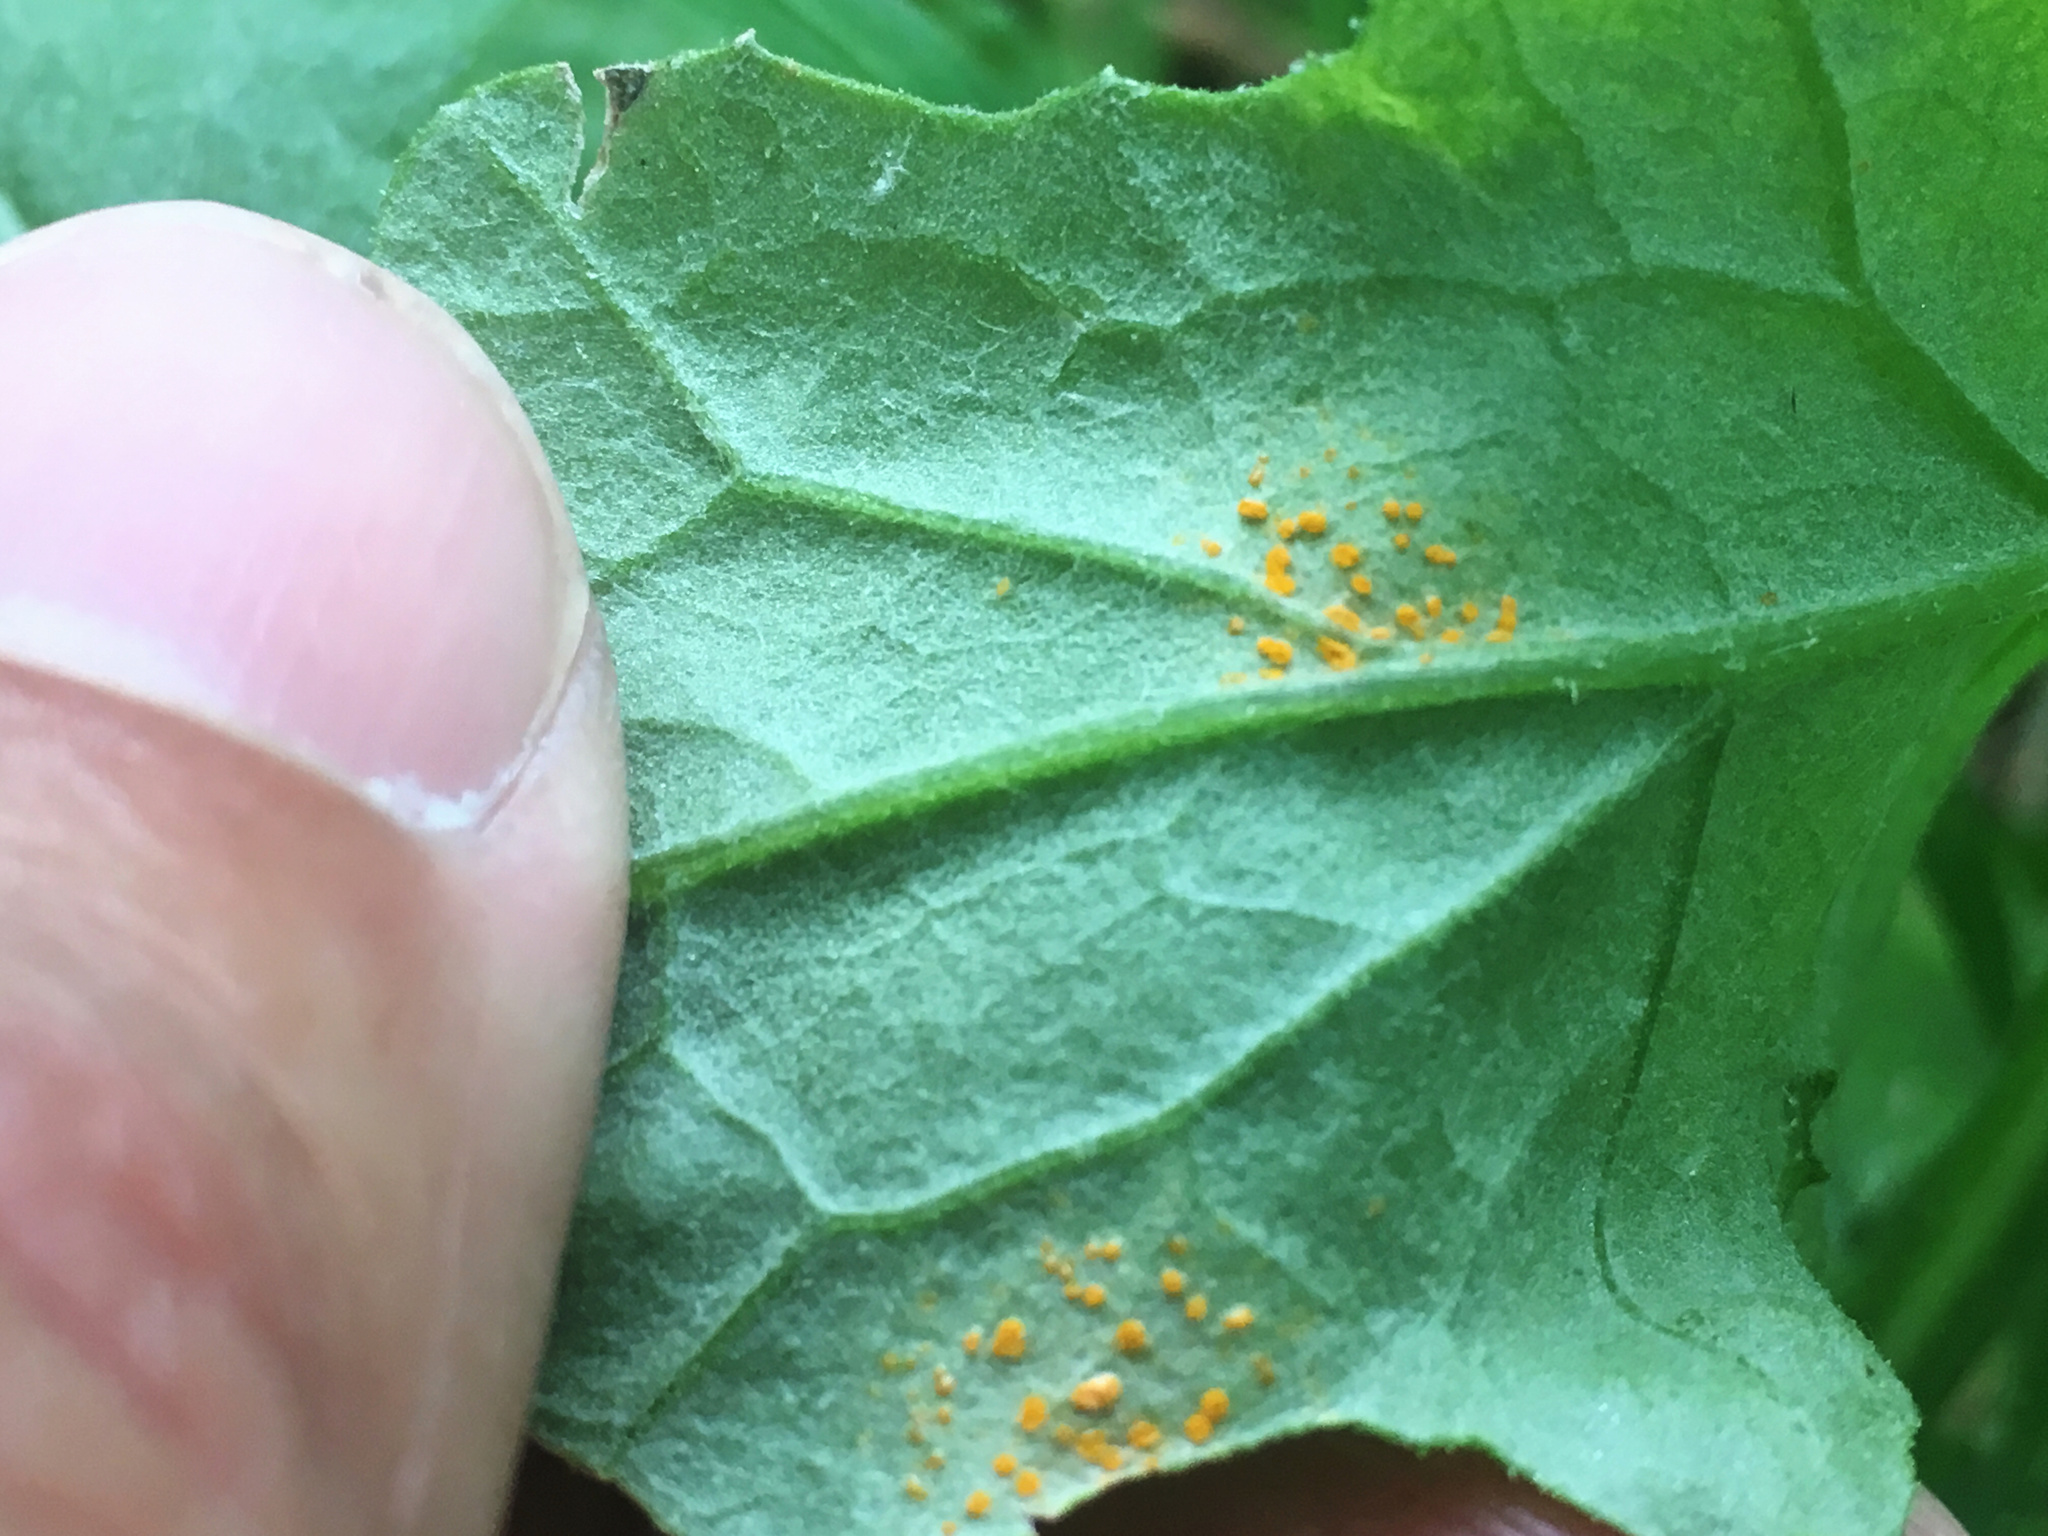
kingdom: Fungi
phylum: Basidiomycota
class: Pucciniomycetes
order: Pucciniales
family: Coleosporiaceae
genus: Coleosporium
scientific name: Coleosporium tussilaginis
